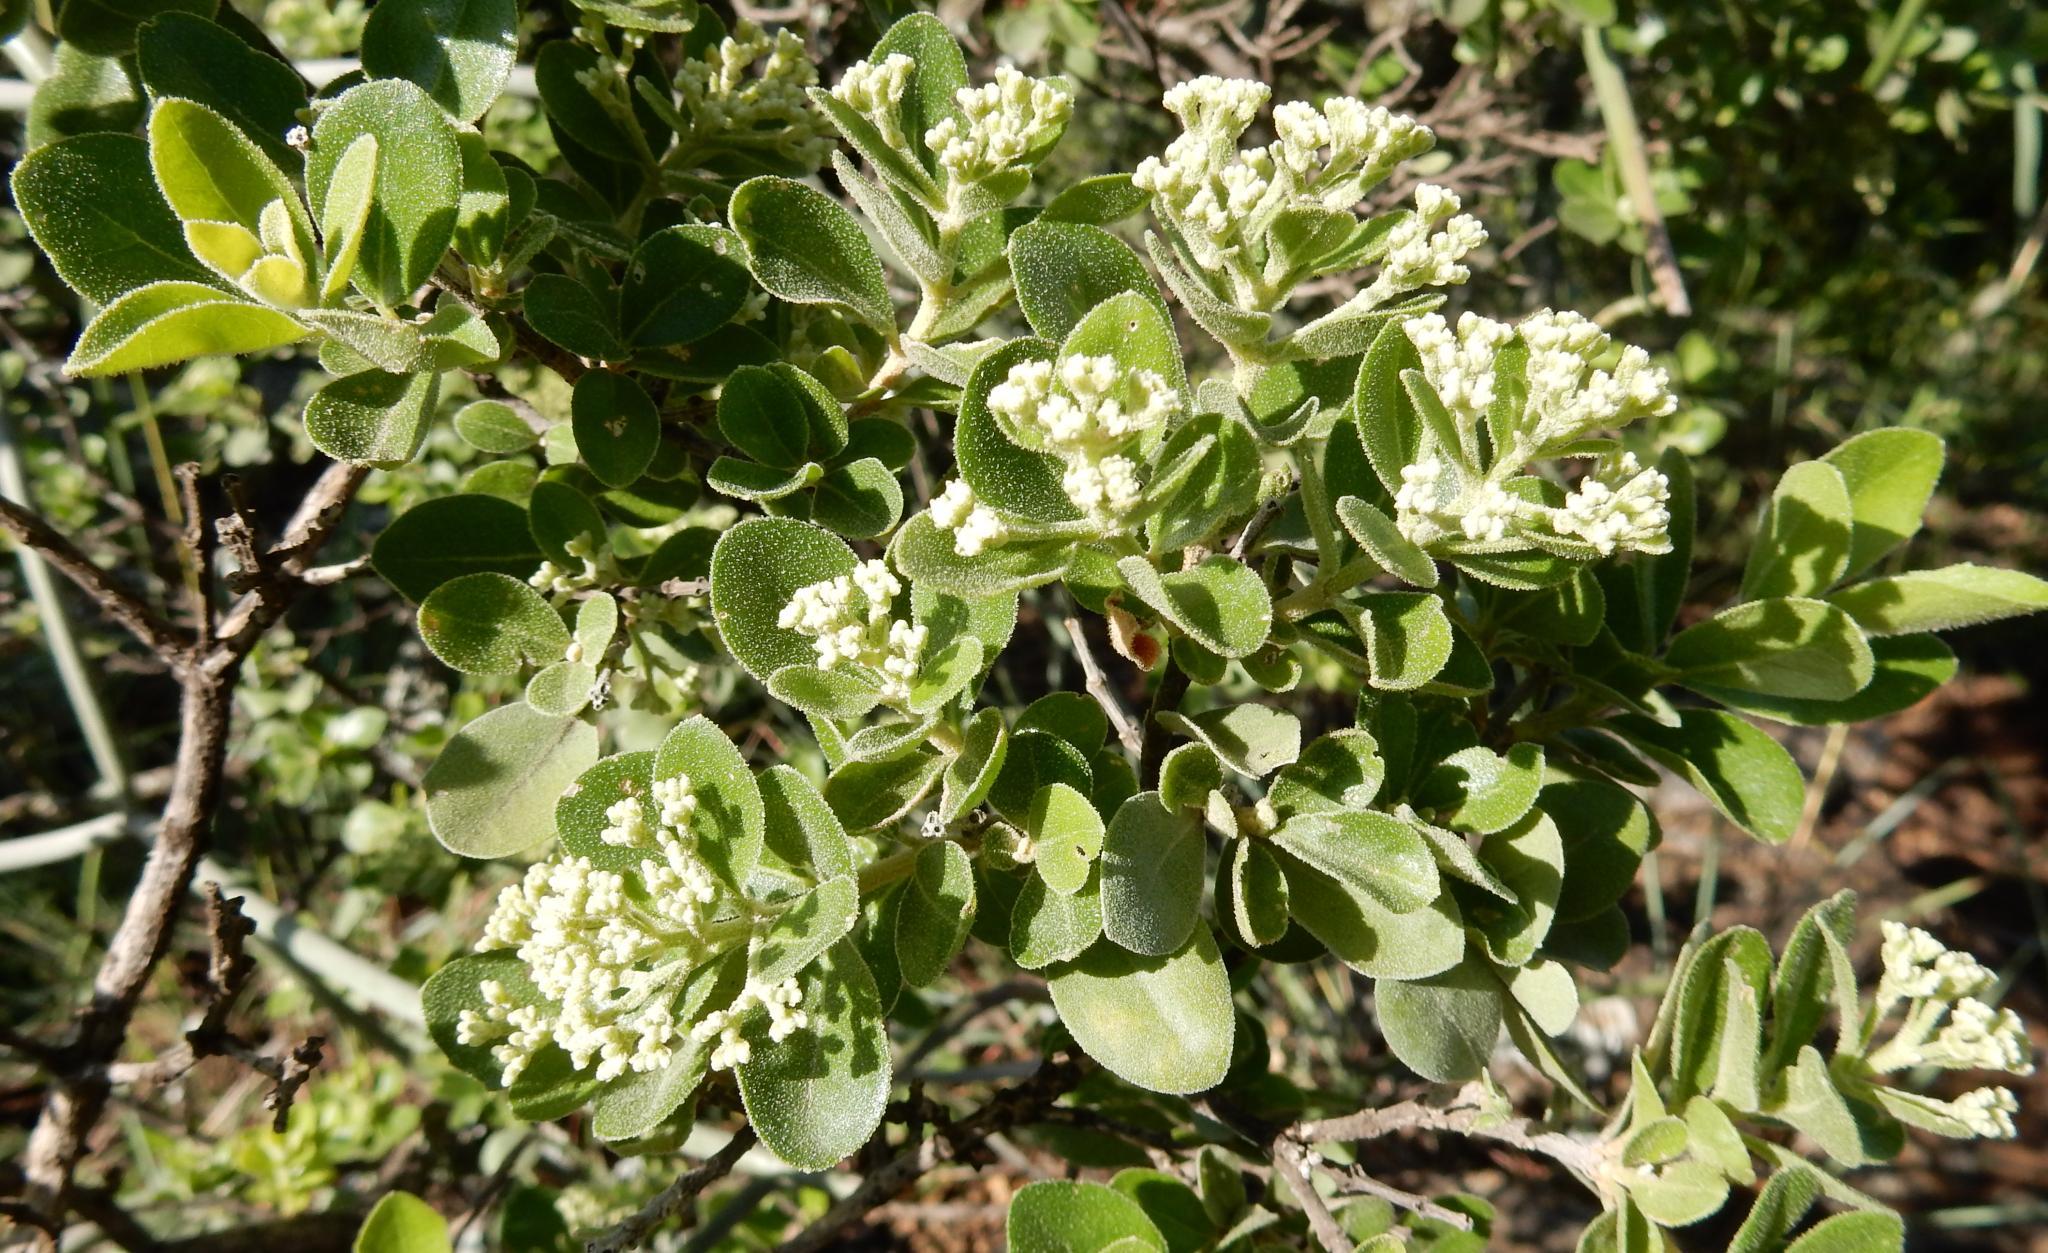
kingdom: Plantae
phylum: Tracheophyta
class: Magnoliopsida
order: Lamiales
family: Stilbaceae
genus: Nuxia
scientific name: Nuxia congesta
